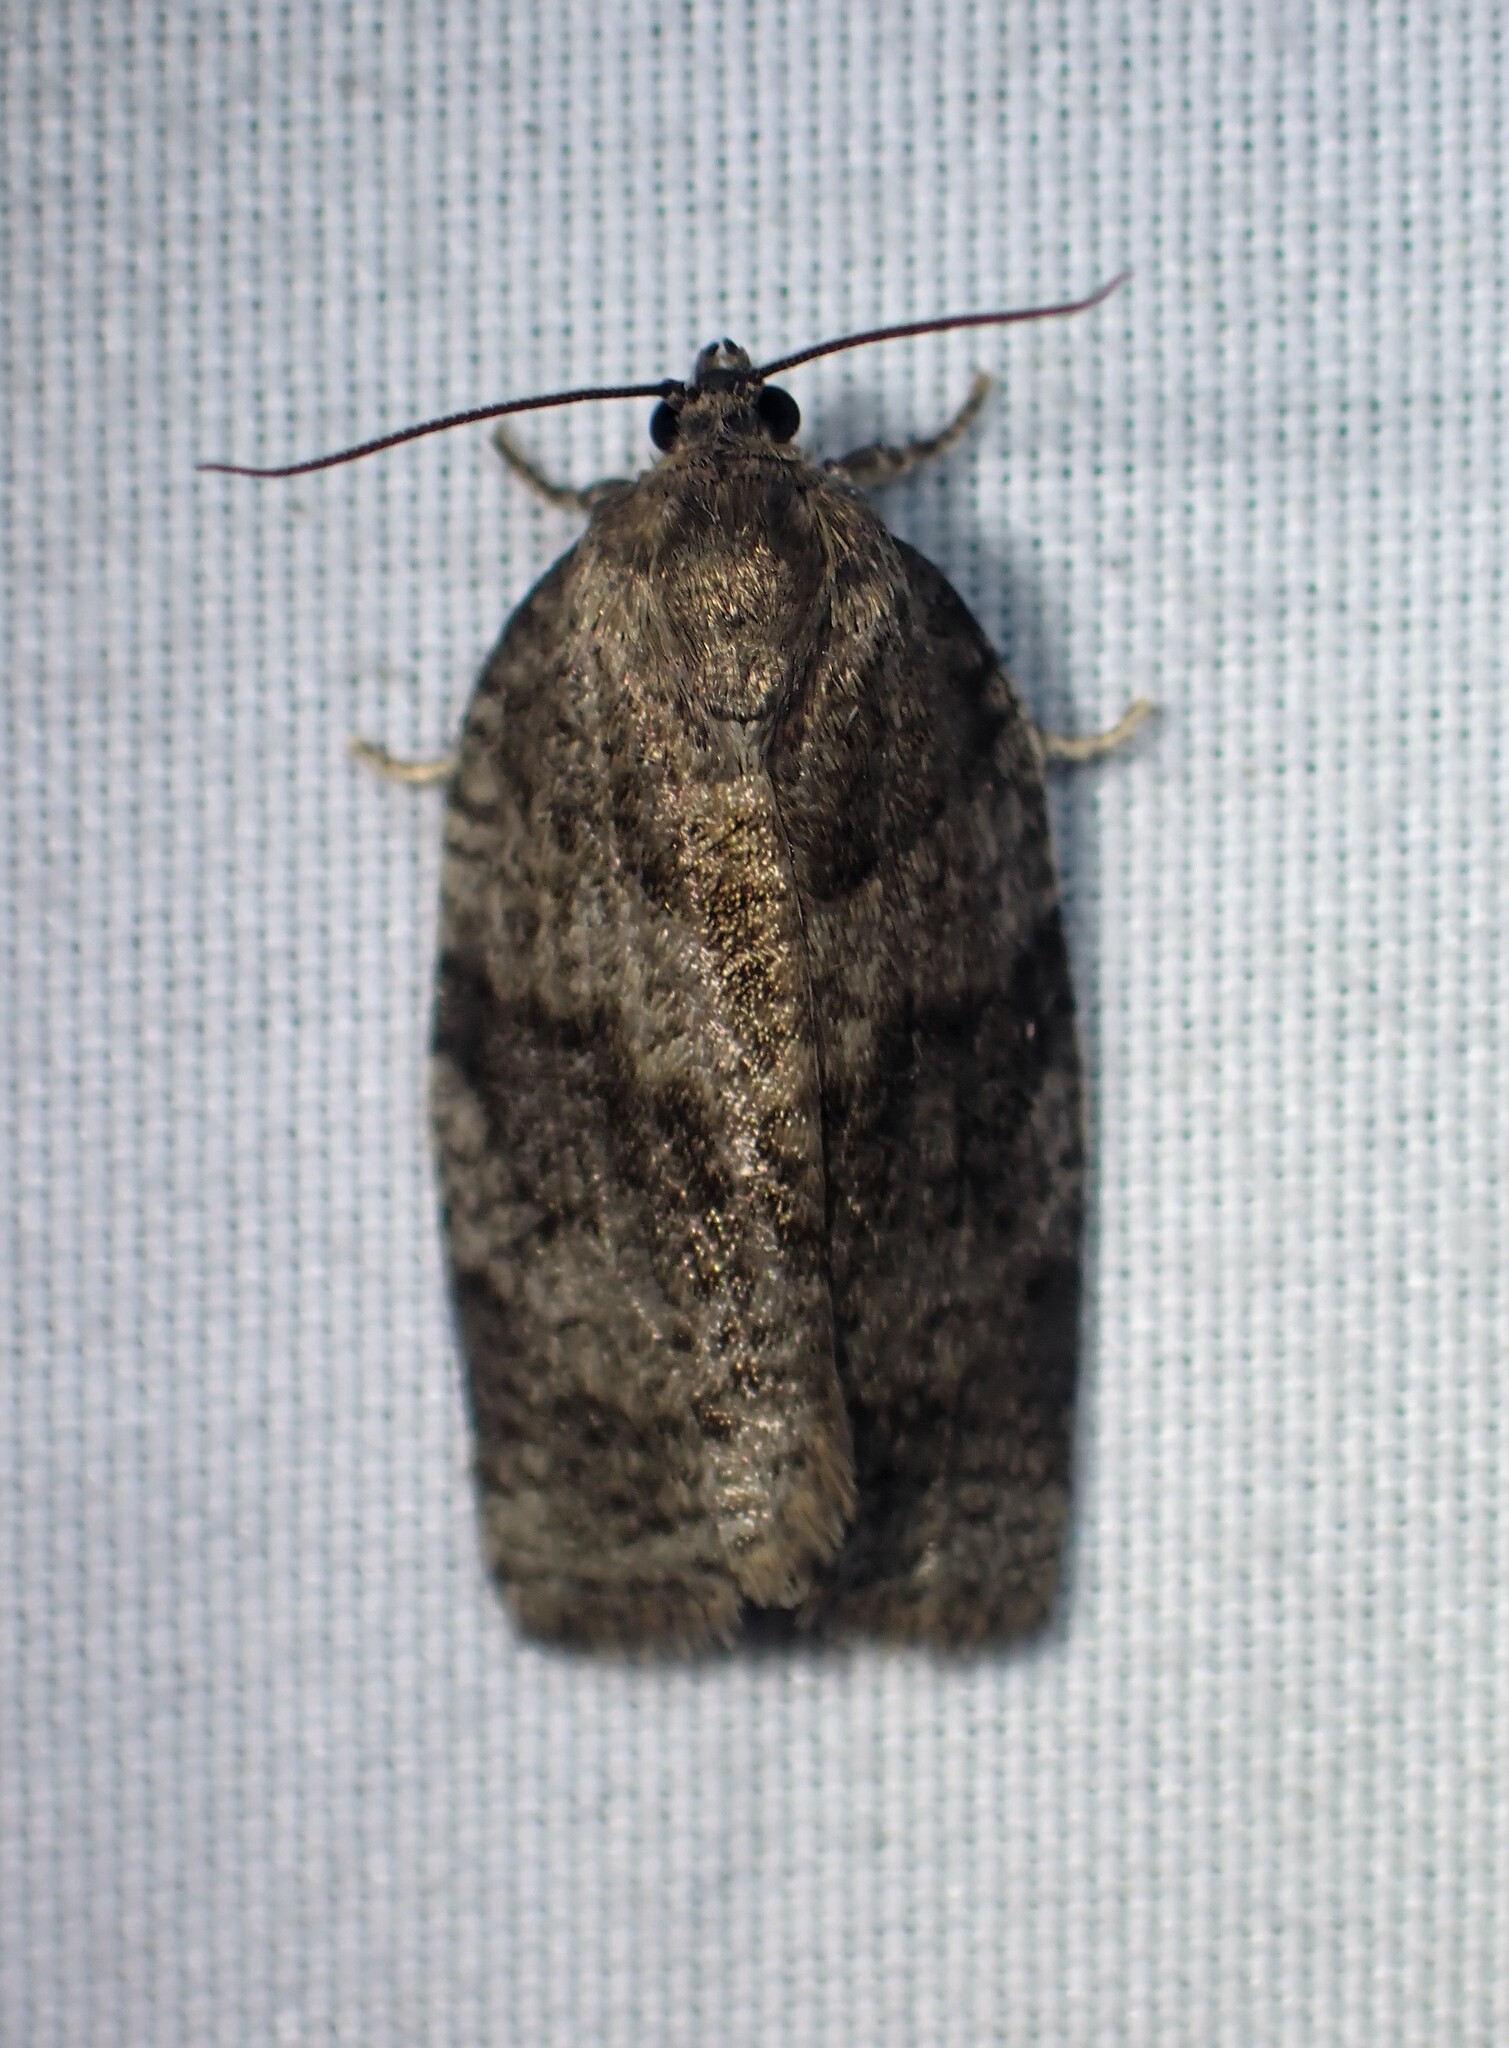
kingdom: Animalia
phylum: Arthropoda
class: Insecta
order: Lepidoptera
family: Tortricidae
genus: Choristoneura
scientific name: Choristoneura conflictana
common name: Large aspen tortrix
